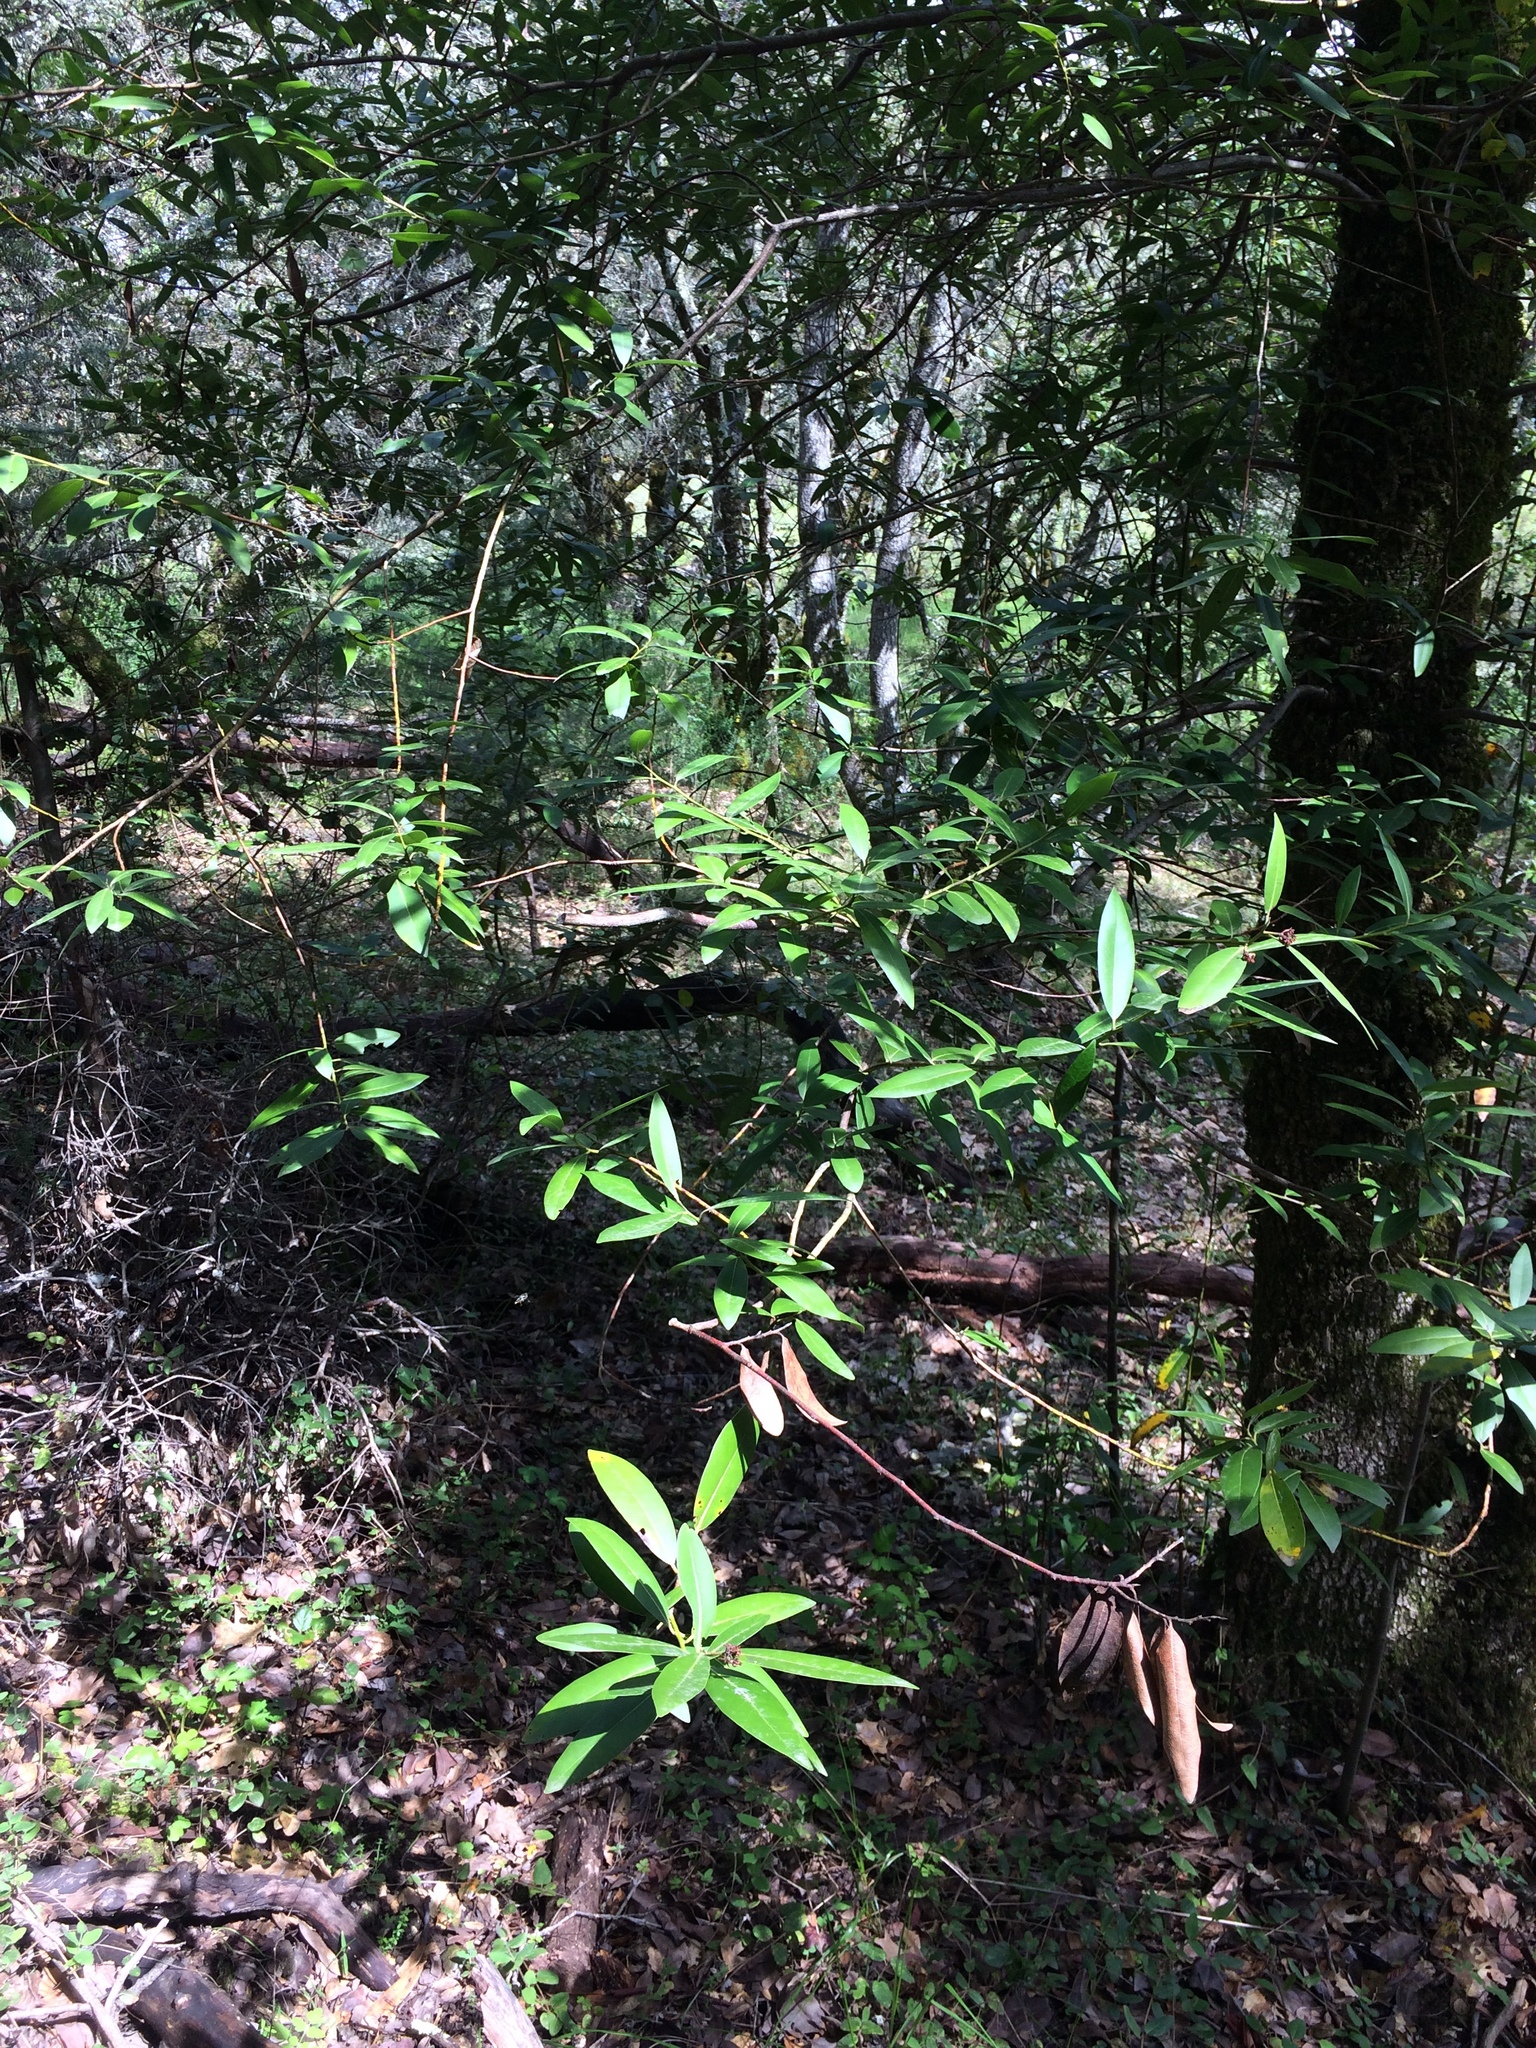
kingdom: Plantae
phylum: Tracheophyta
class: Magnoliopsida
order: Laurales
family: Lauraceae
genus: Umbellularia
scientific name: Umbellularia californica
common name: California bay
